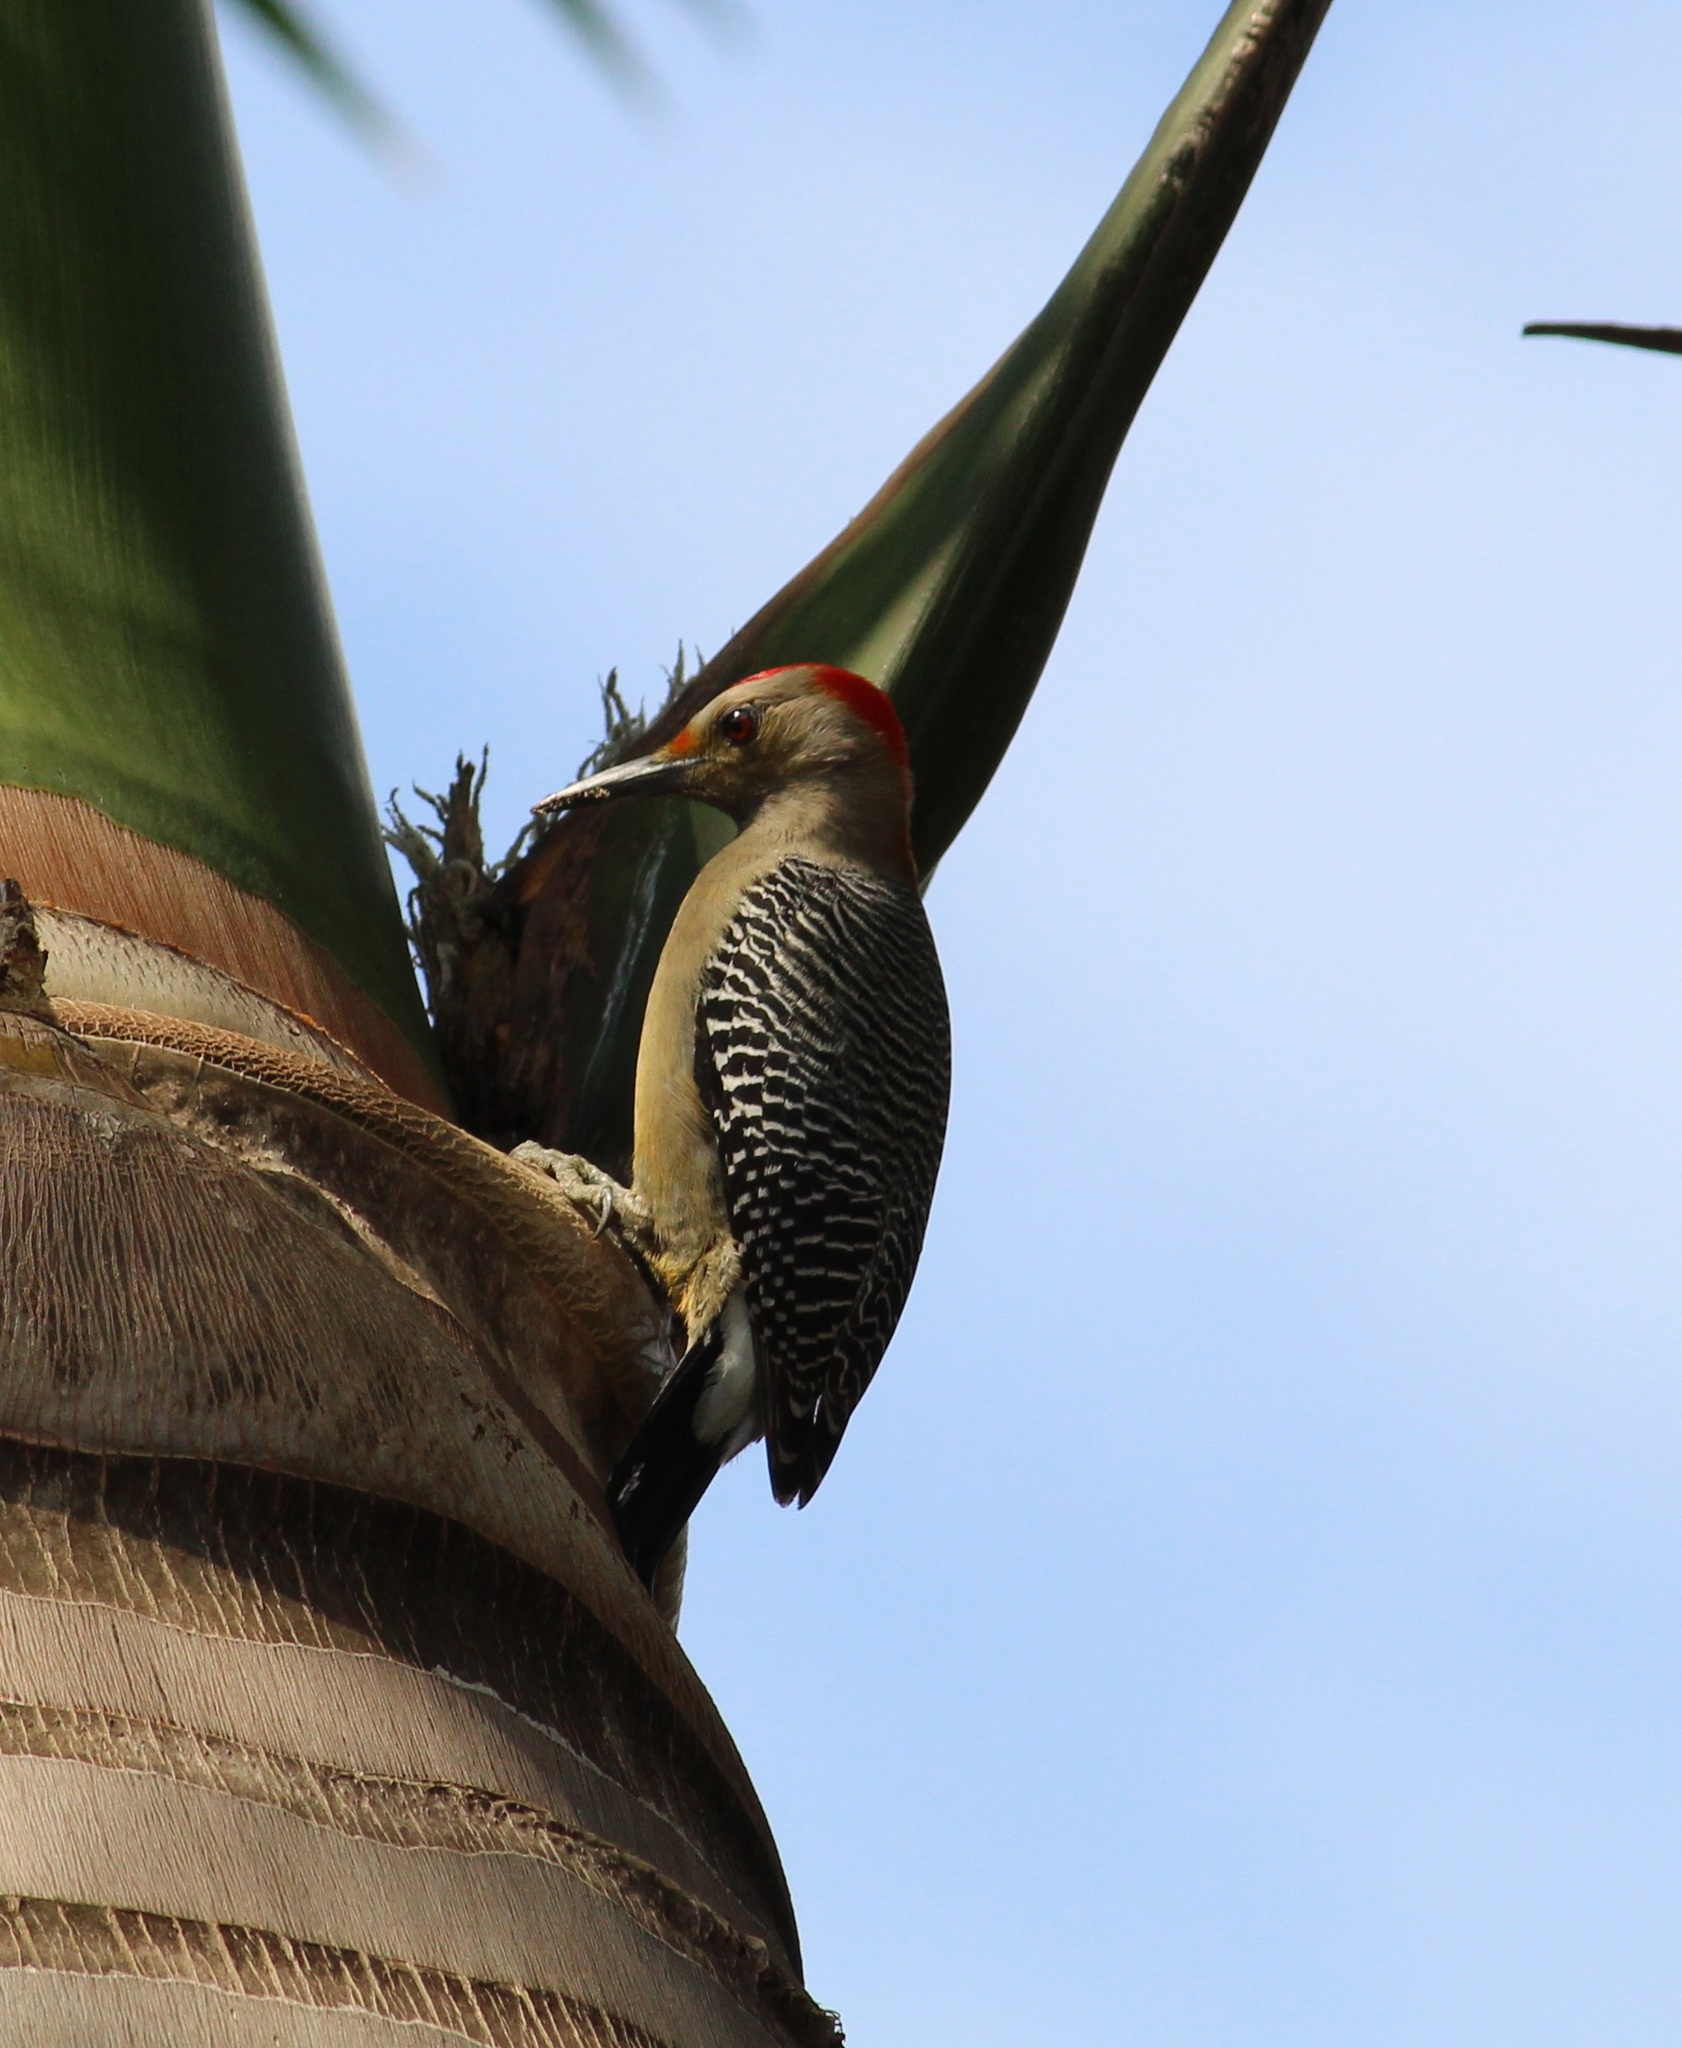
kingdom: Animalia
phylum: Chordata
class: Aves
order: Piciformes
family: Picidae
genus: Melanerpes
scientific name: Melanerpes aurifrons
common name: Golden-fronted woodpecker
